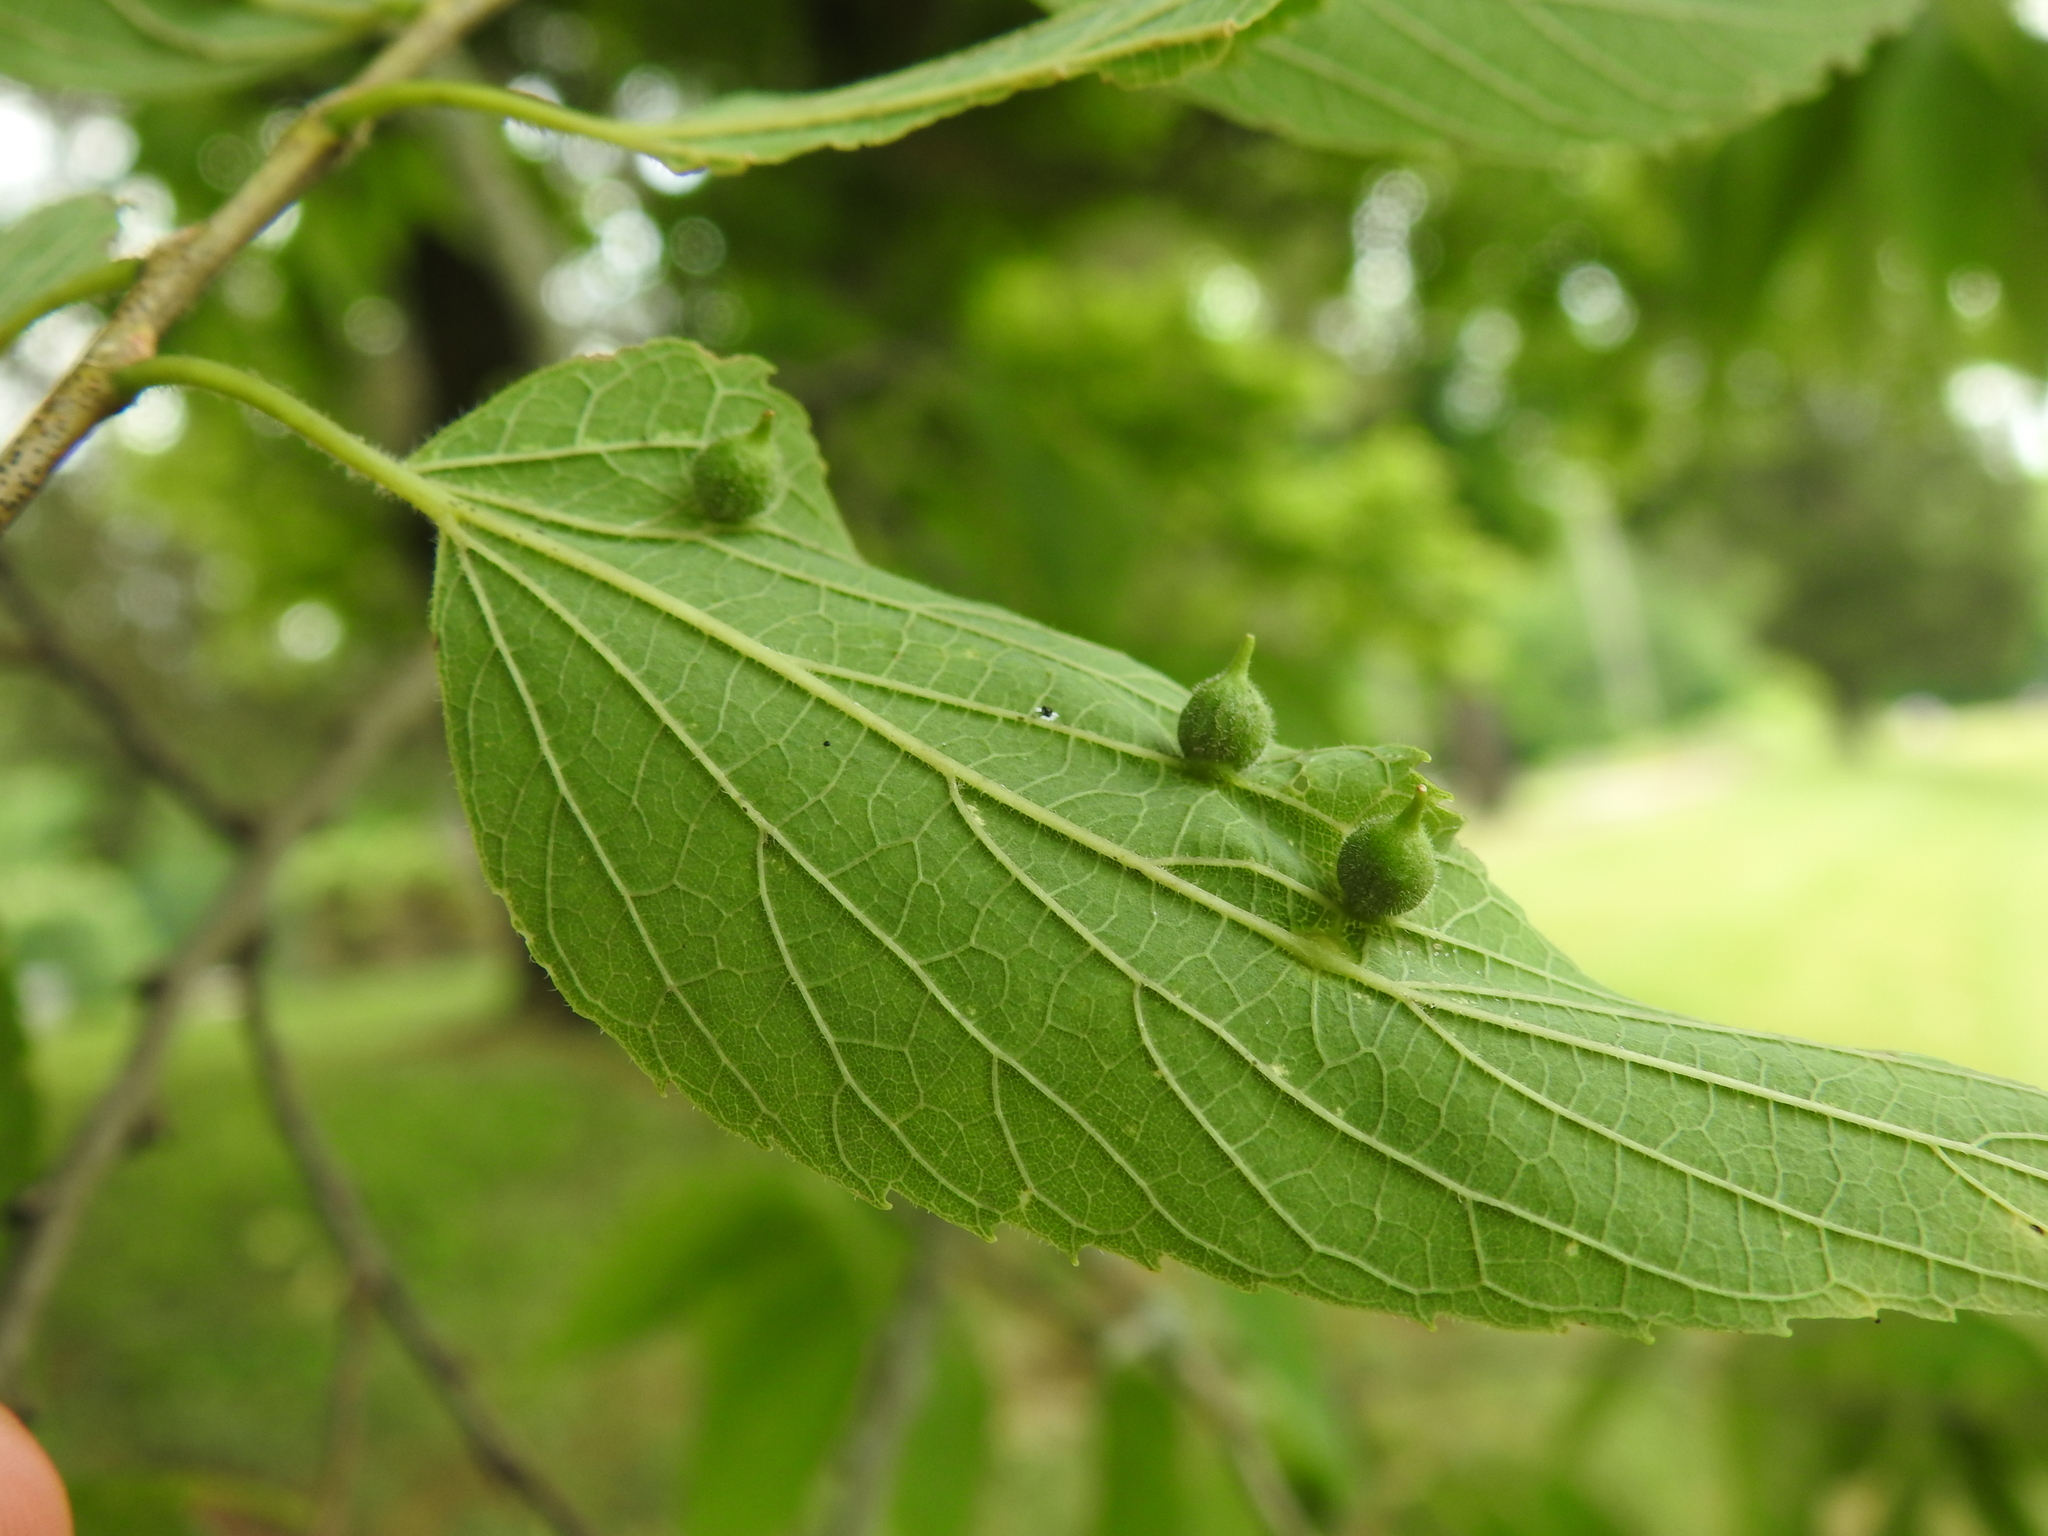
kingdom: Animalia
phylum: Arthropoda
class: Insecta
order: Diptera
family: Cecidomyiidae
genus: Celticecis
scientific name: Celticecis ovata
